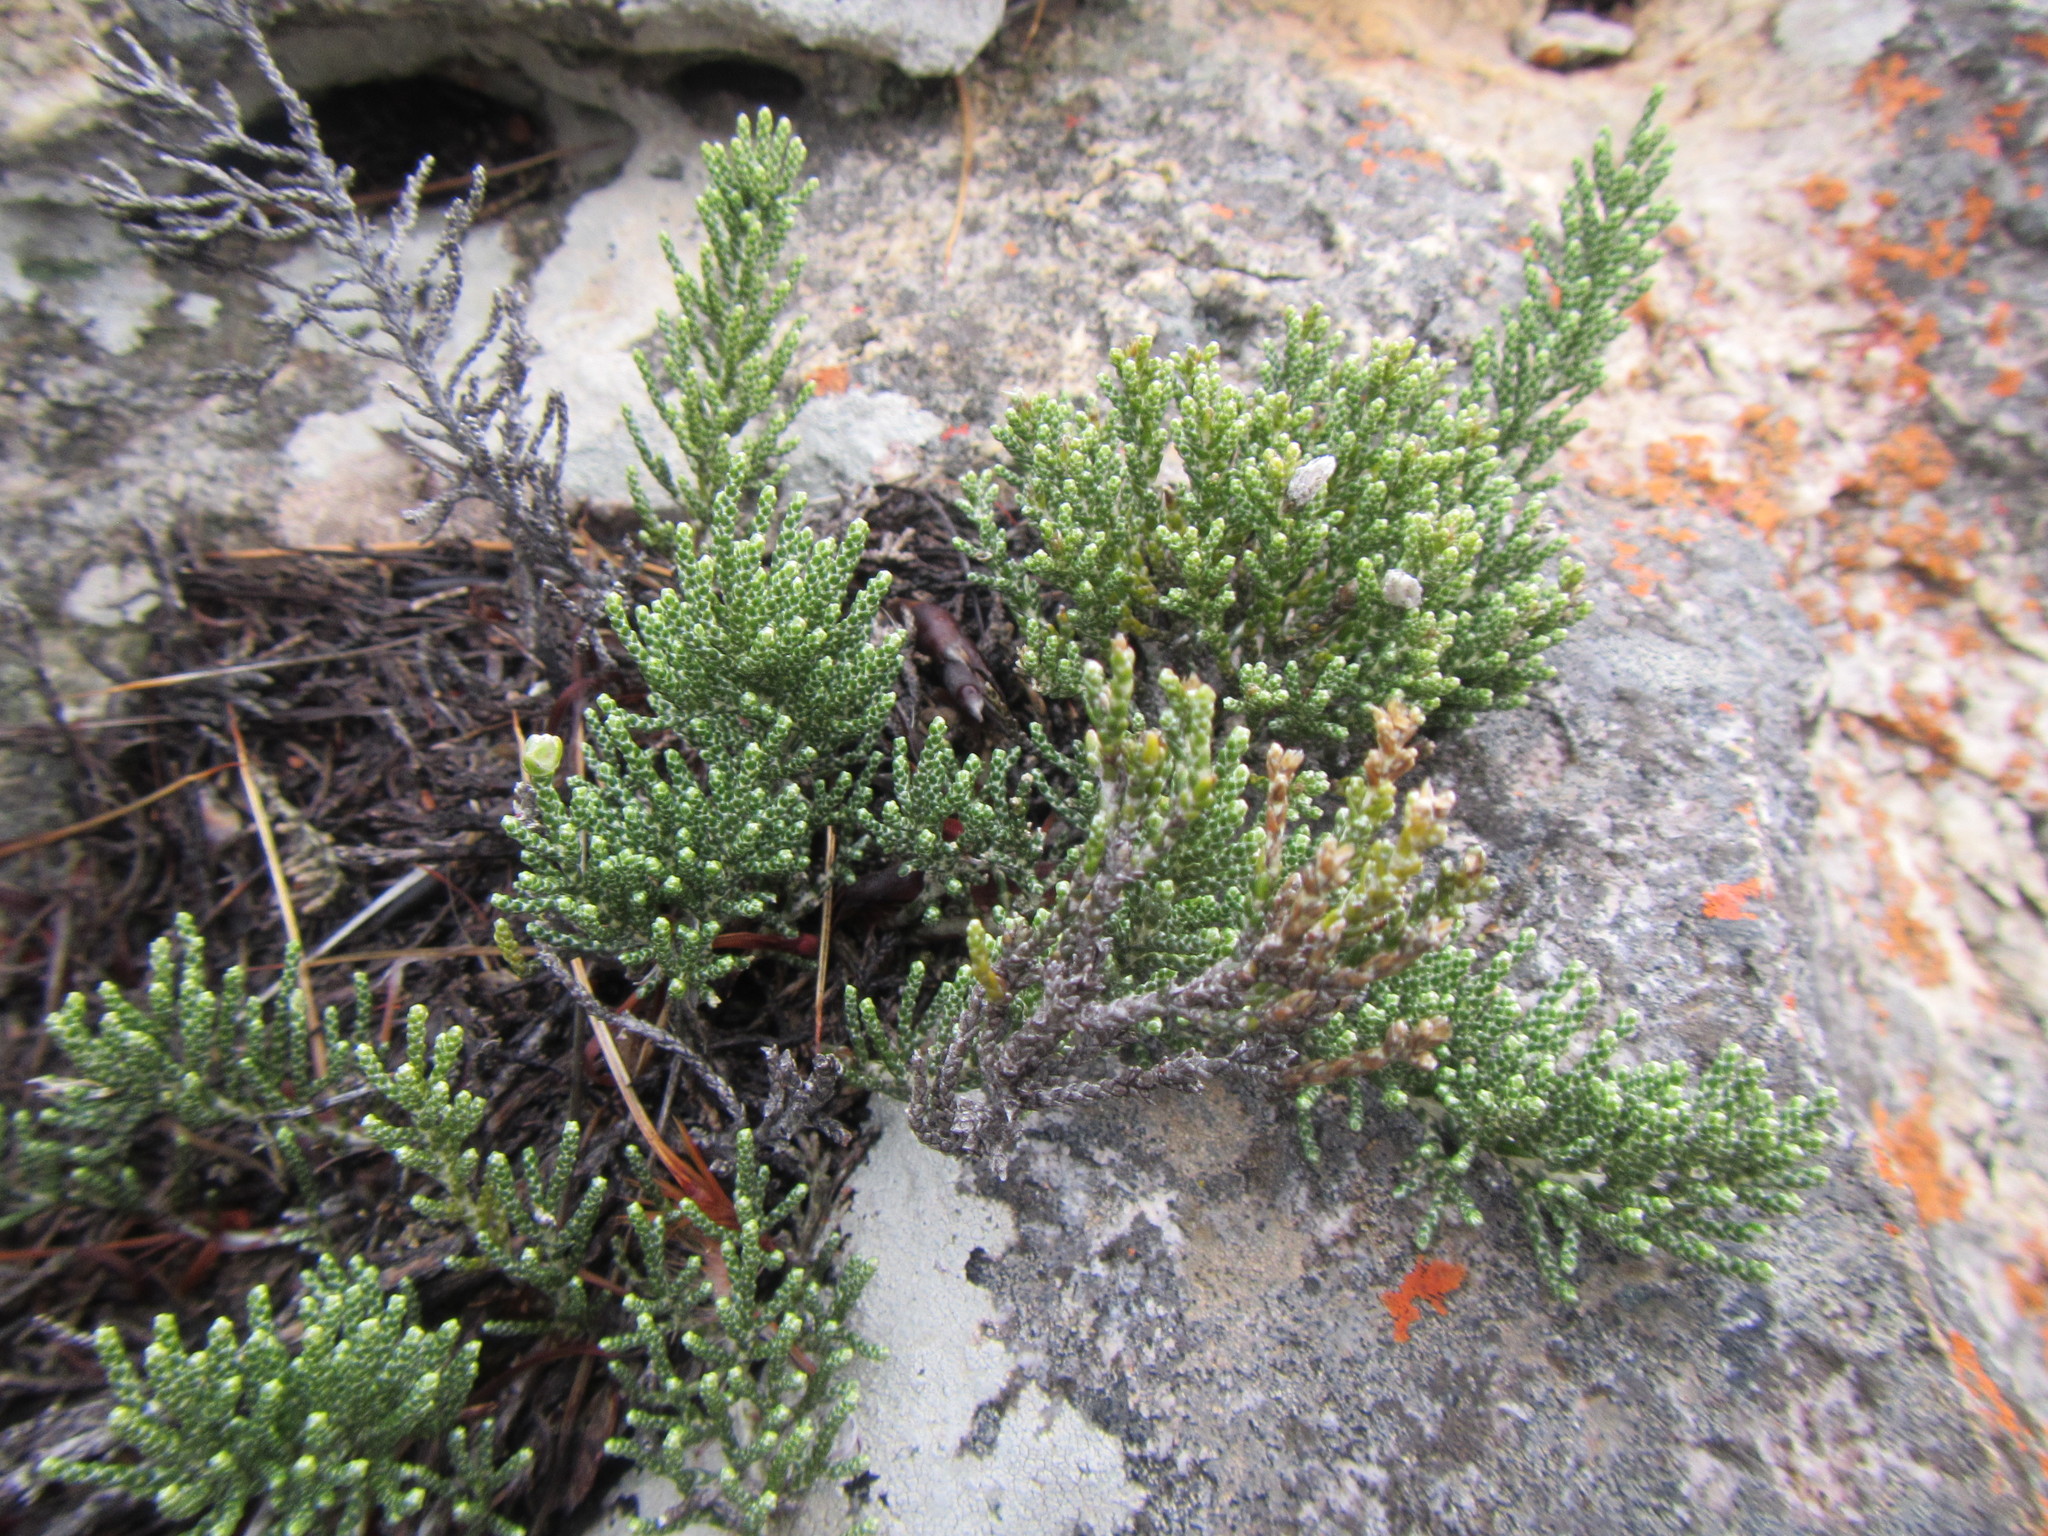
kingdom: Plantae
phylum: Tracheophyta
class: Magnoliopsida
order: Asterales
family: Asteraceae
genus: Dolichothrix
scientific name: Dolichothrix ericoides
